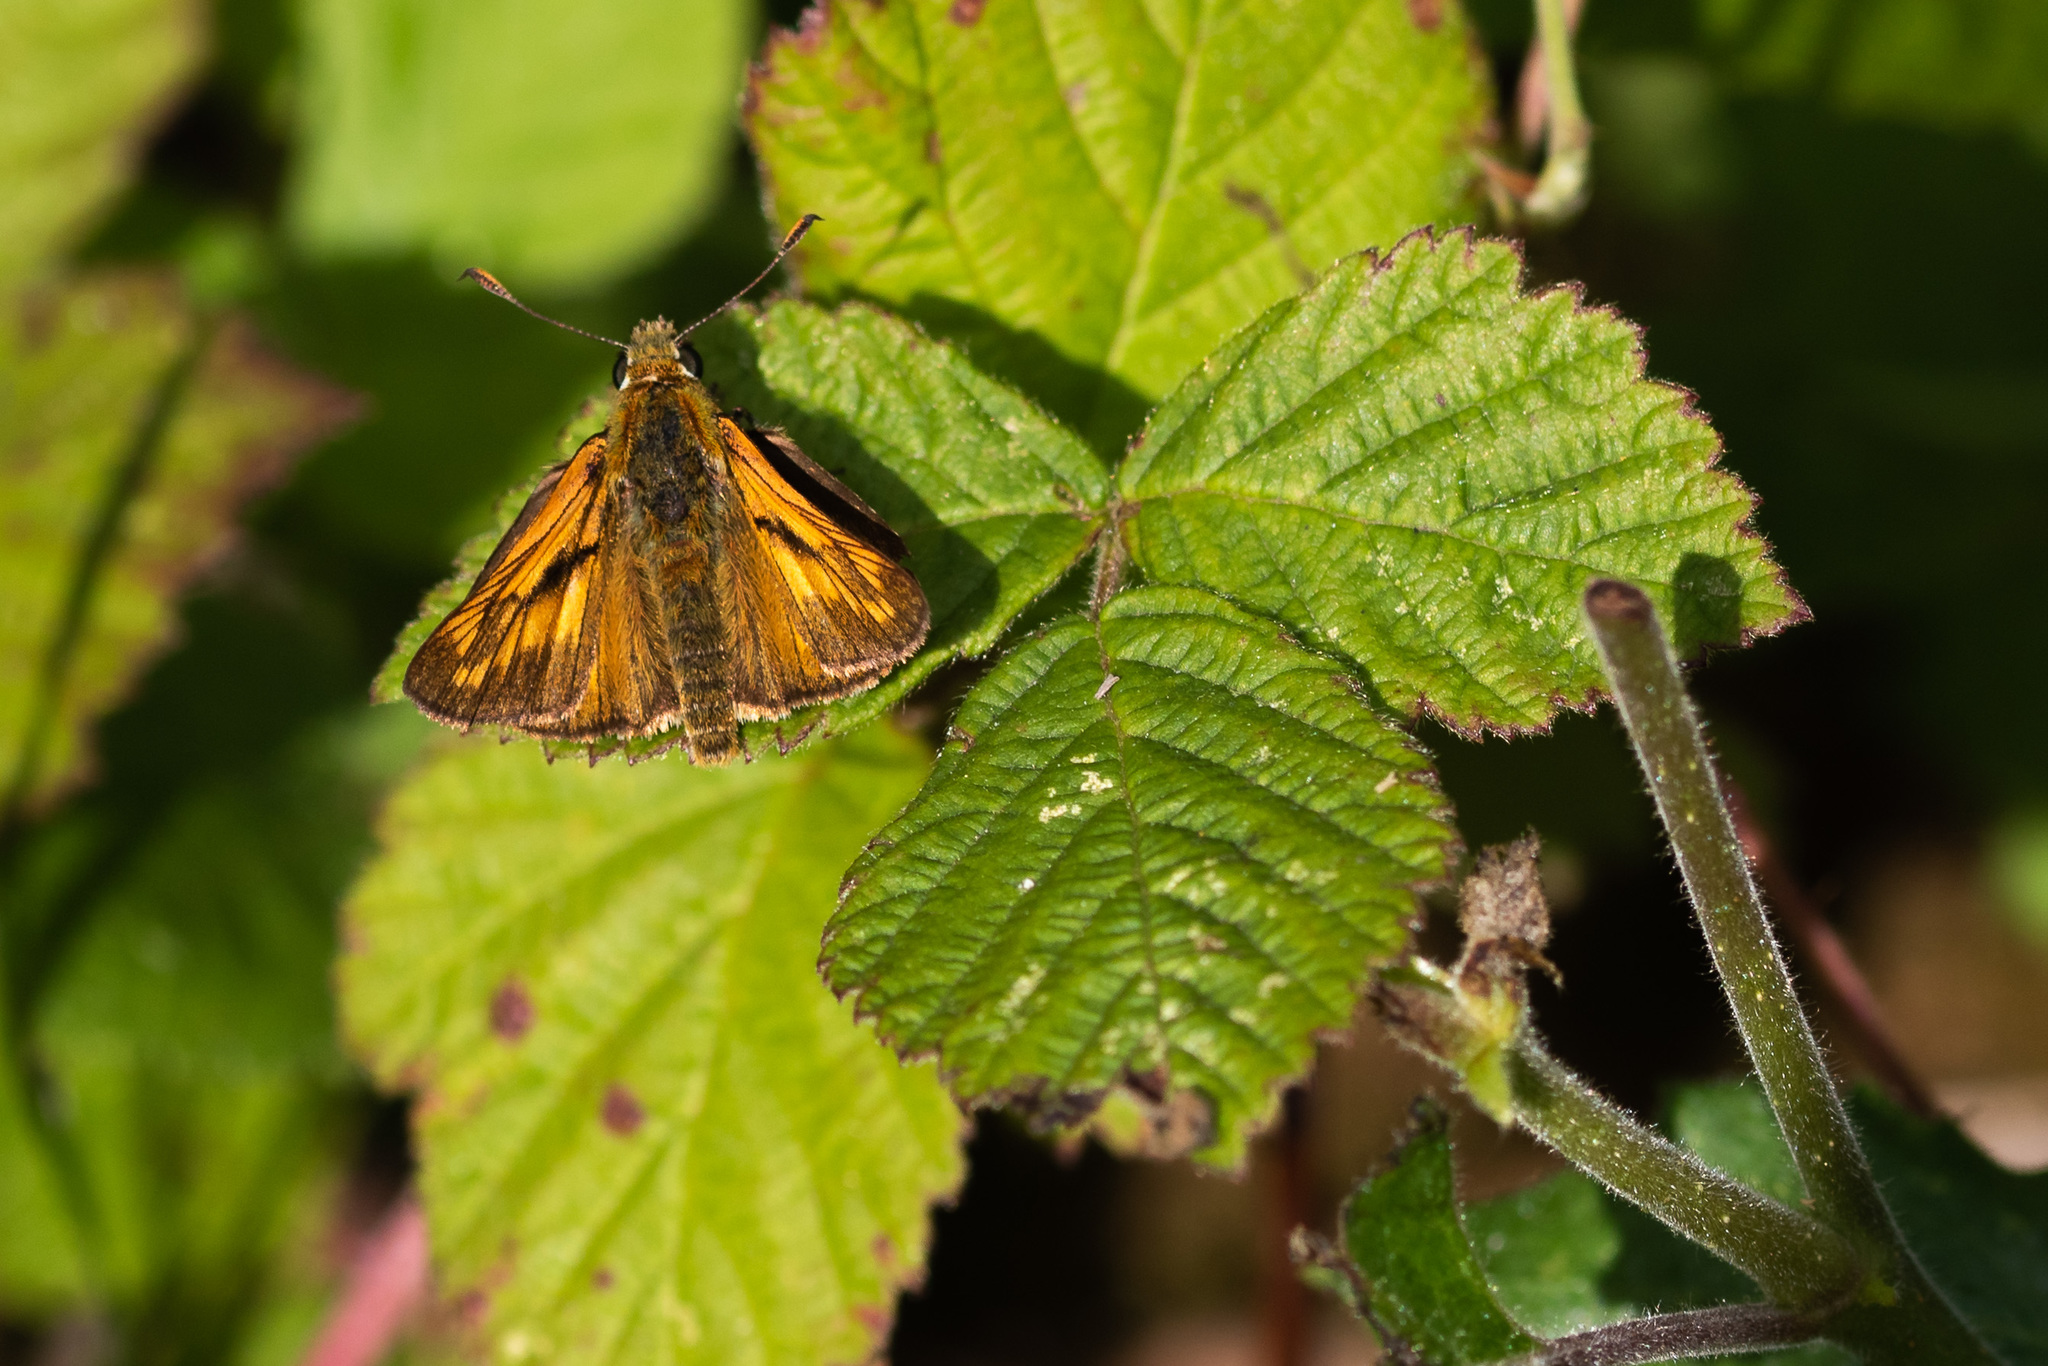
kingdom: Animalia
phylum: Arthropoda
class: Insecta
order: Lepidoptera
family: Hesperiidae
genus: Ochlodes
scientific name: Ochlodes venata
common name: Large skipper
